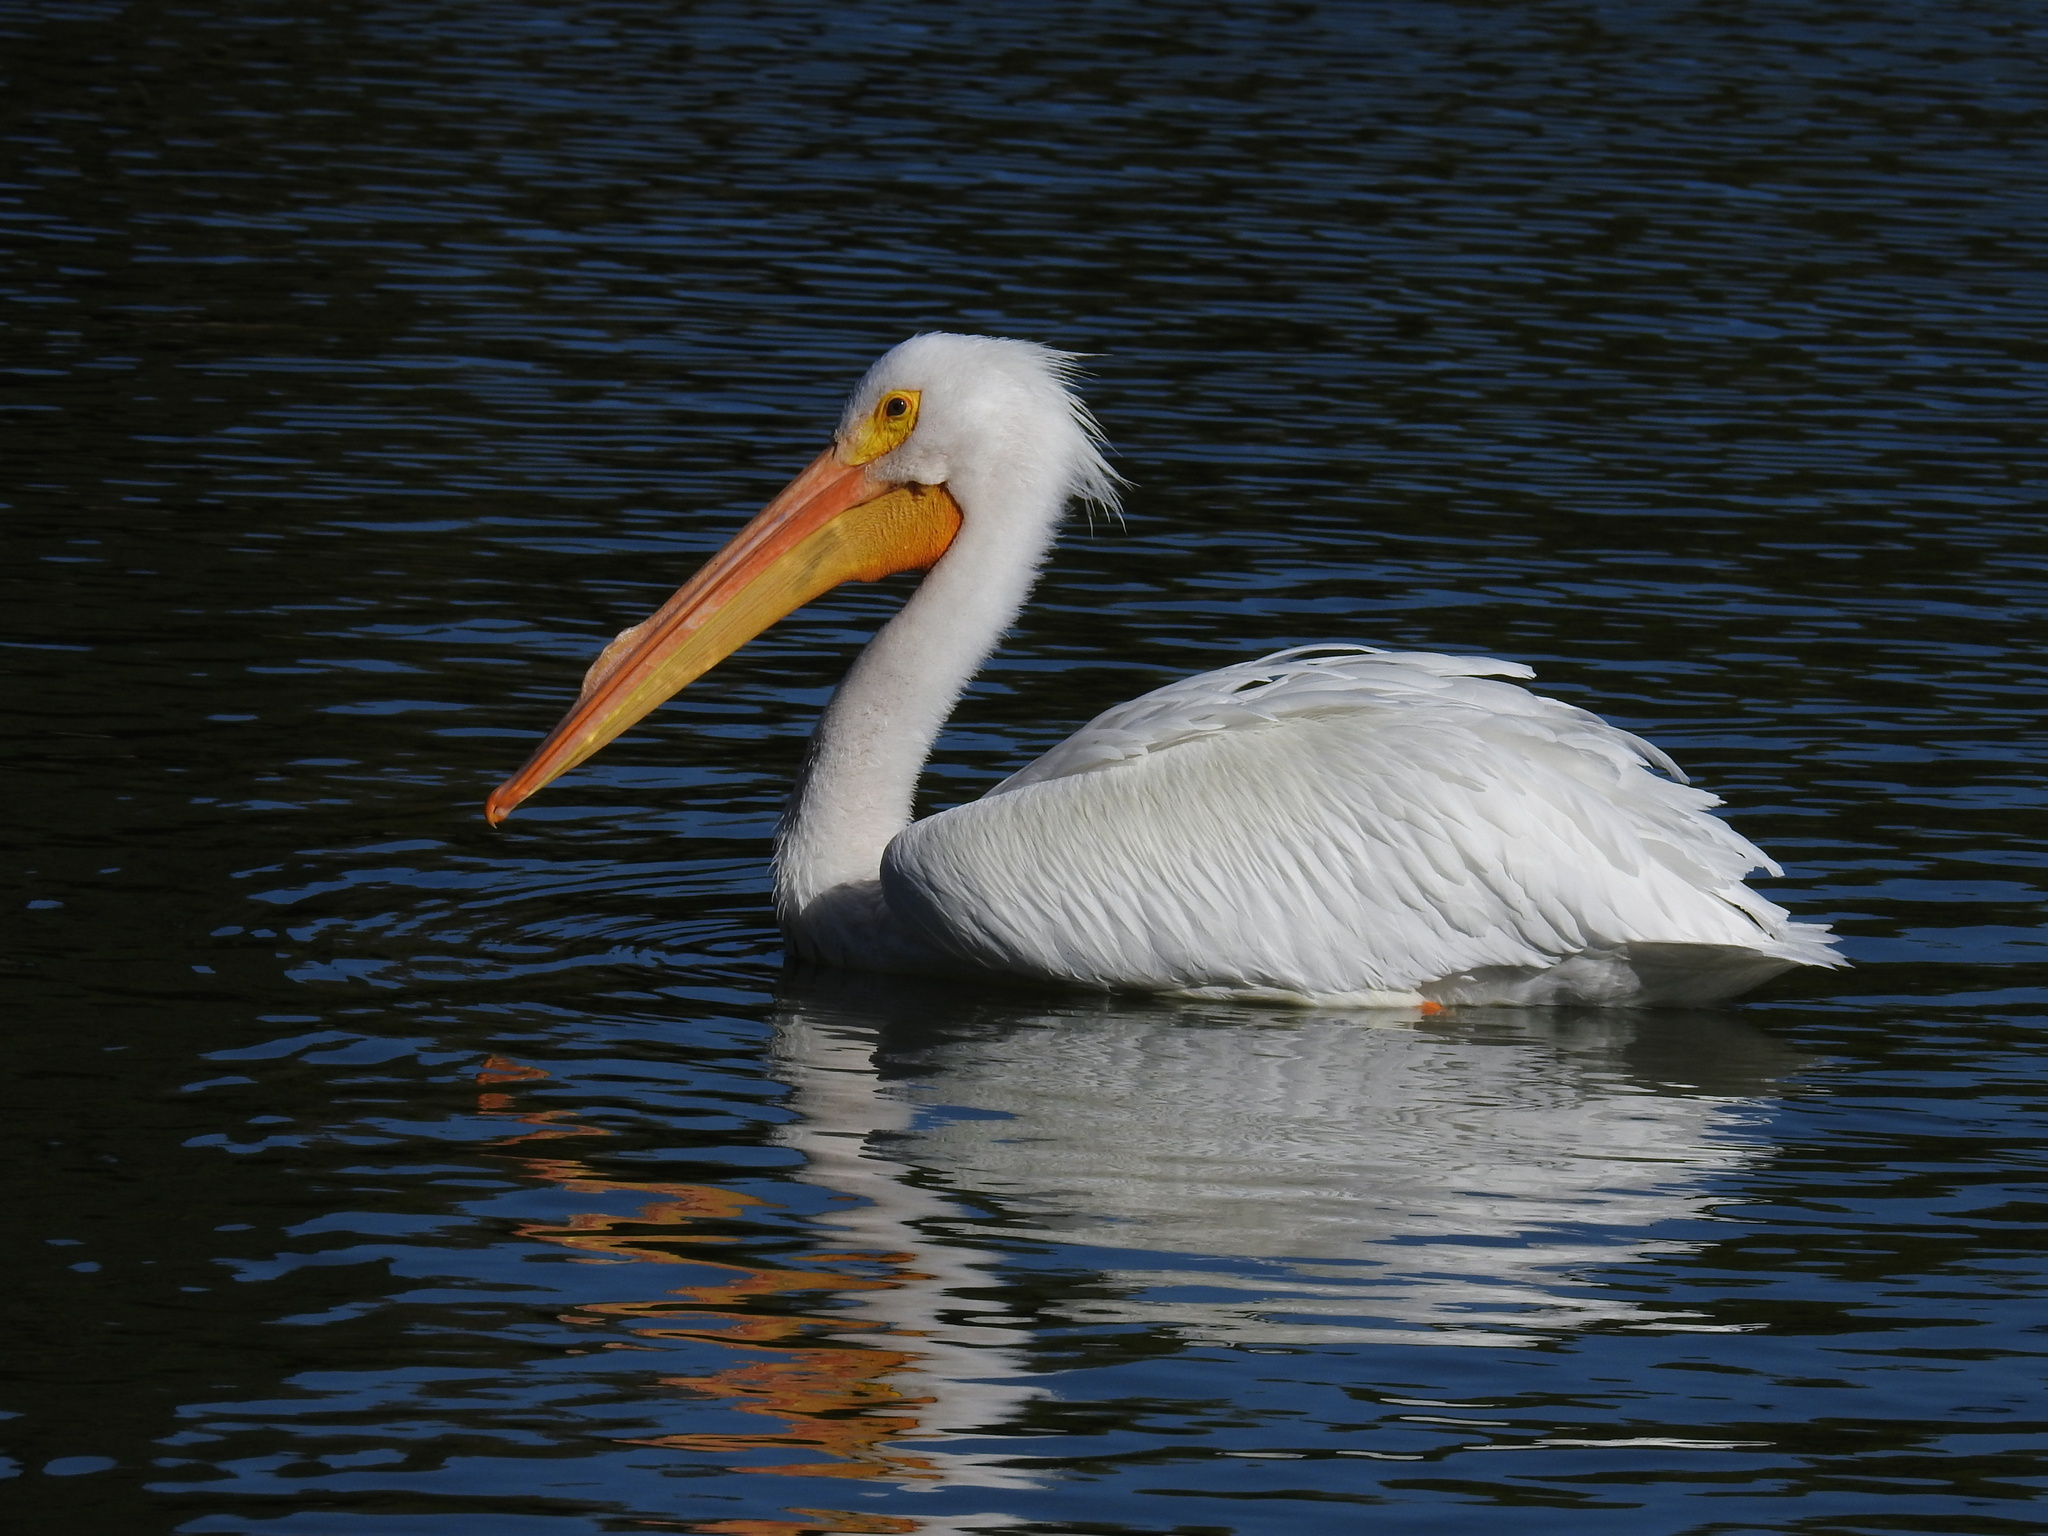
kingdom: Animalia
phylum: Chordata
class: Aves
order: Pelecaniformes
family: Pelecanidae
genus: Pelecanus
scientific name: Pelecanus erythrorhynchos
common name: American white pelican
